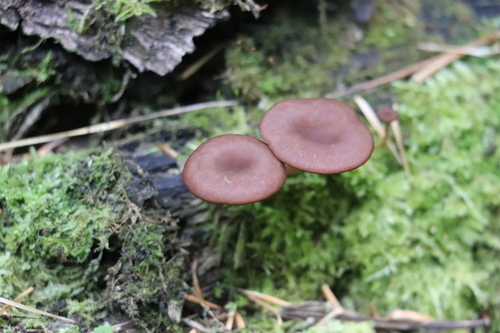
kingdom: Fungi
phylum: Basidiomycota
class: Agaricomycetes
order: Agaricales
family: Hygrophoraceae
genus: Arrhenia
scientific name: Arrhenia discorosea
